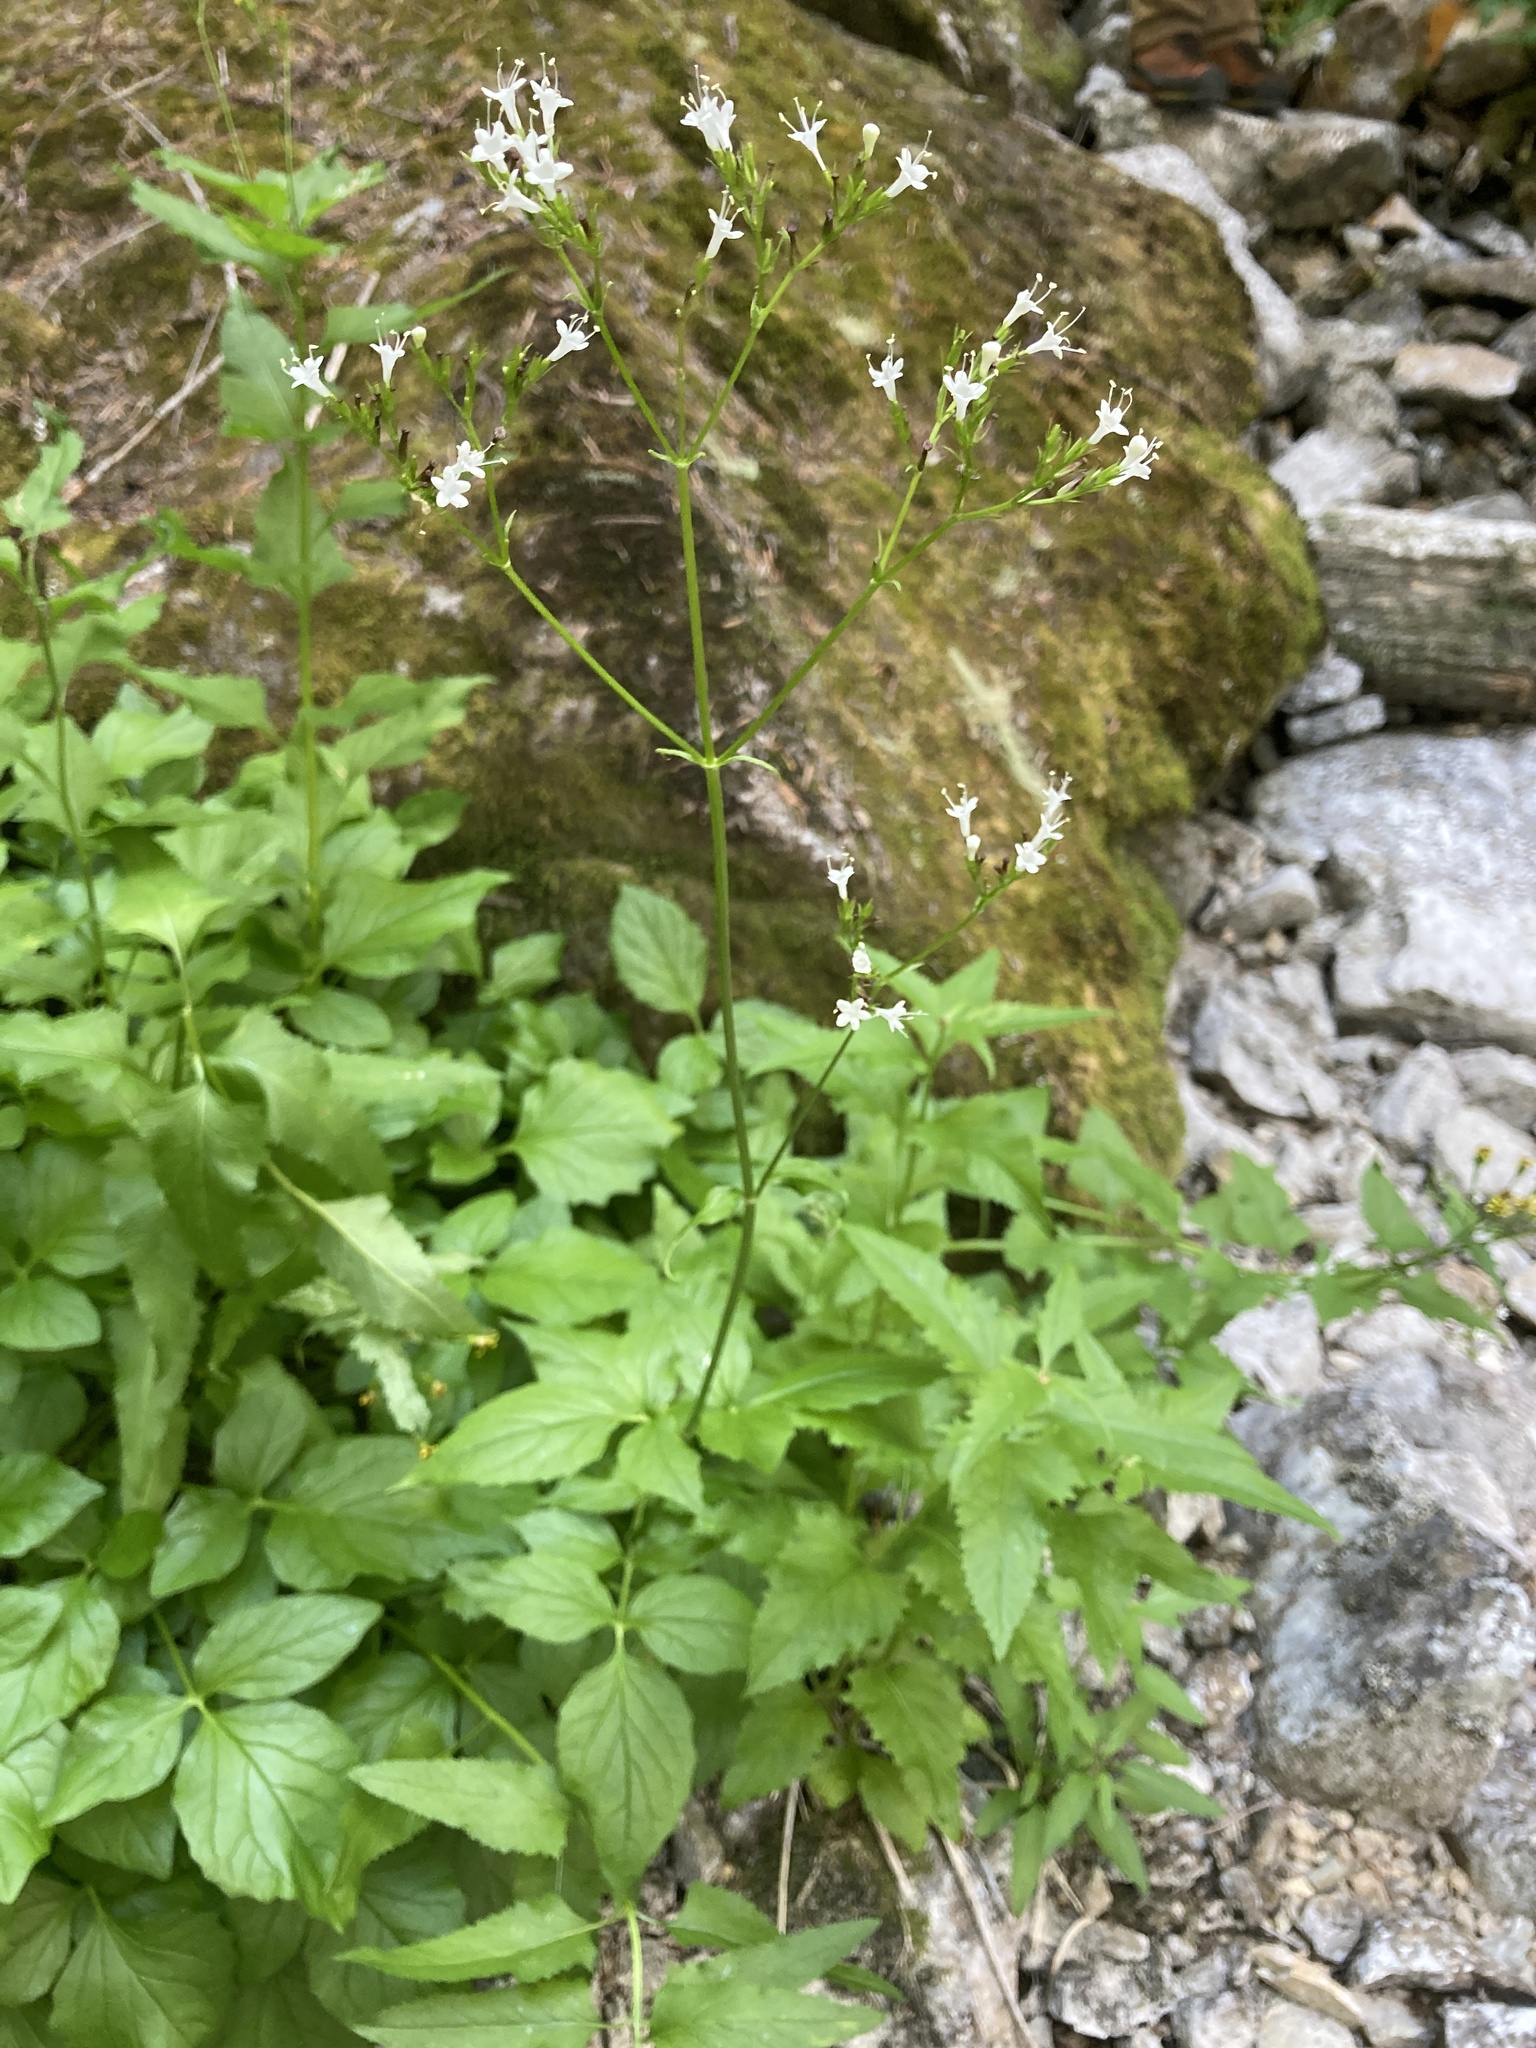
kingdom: Plantae
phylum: Tracheophyta
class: Magnoliopsida
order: Dipsacales
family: Caprifoliaceae
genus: Valeriana
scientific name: Valeriana sitchensis
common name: Pacific valerian
